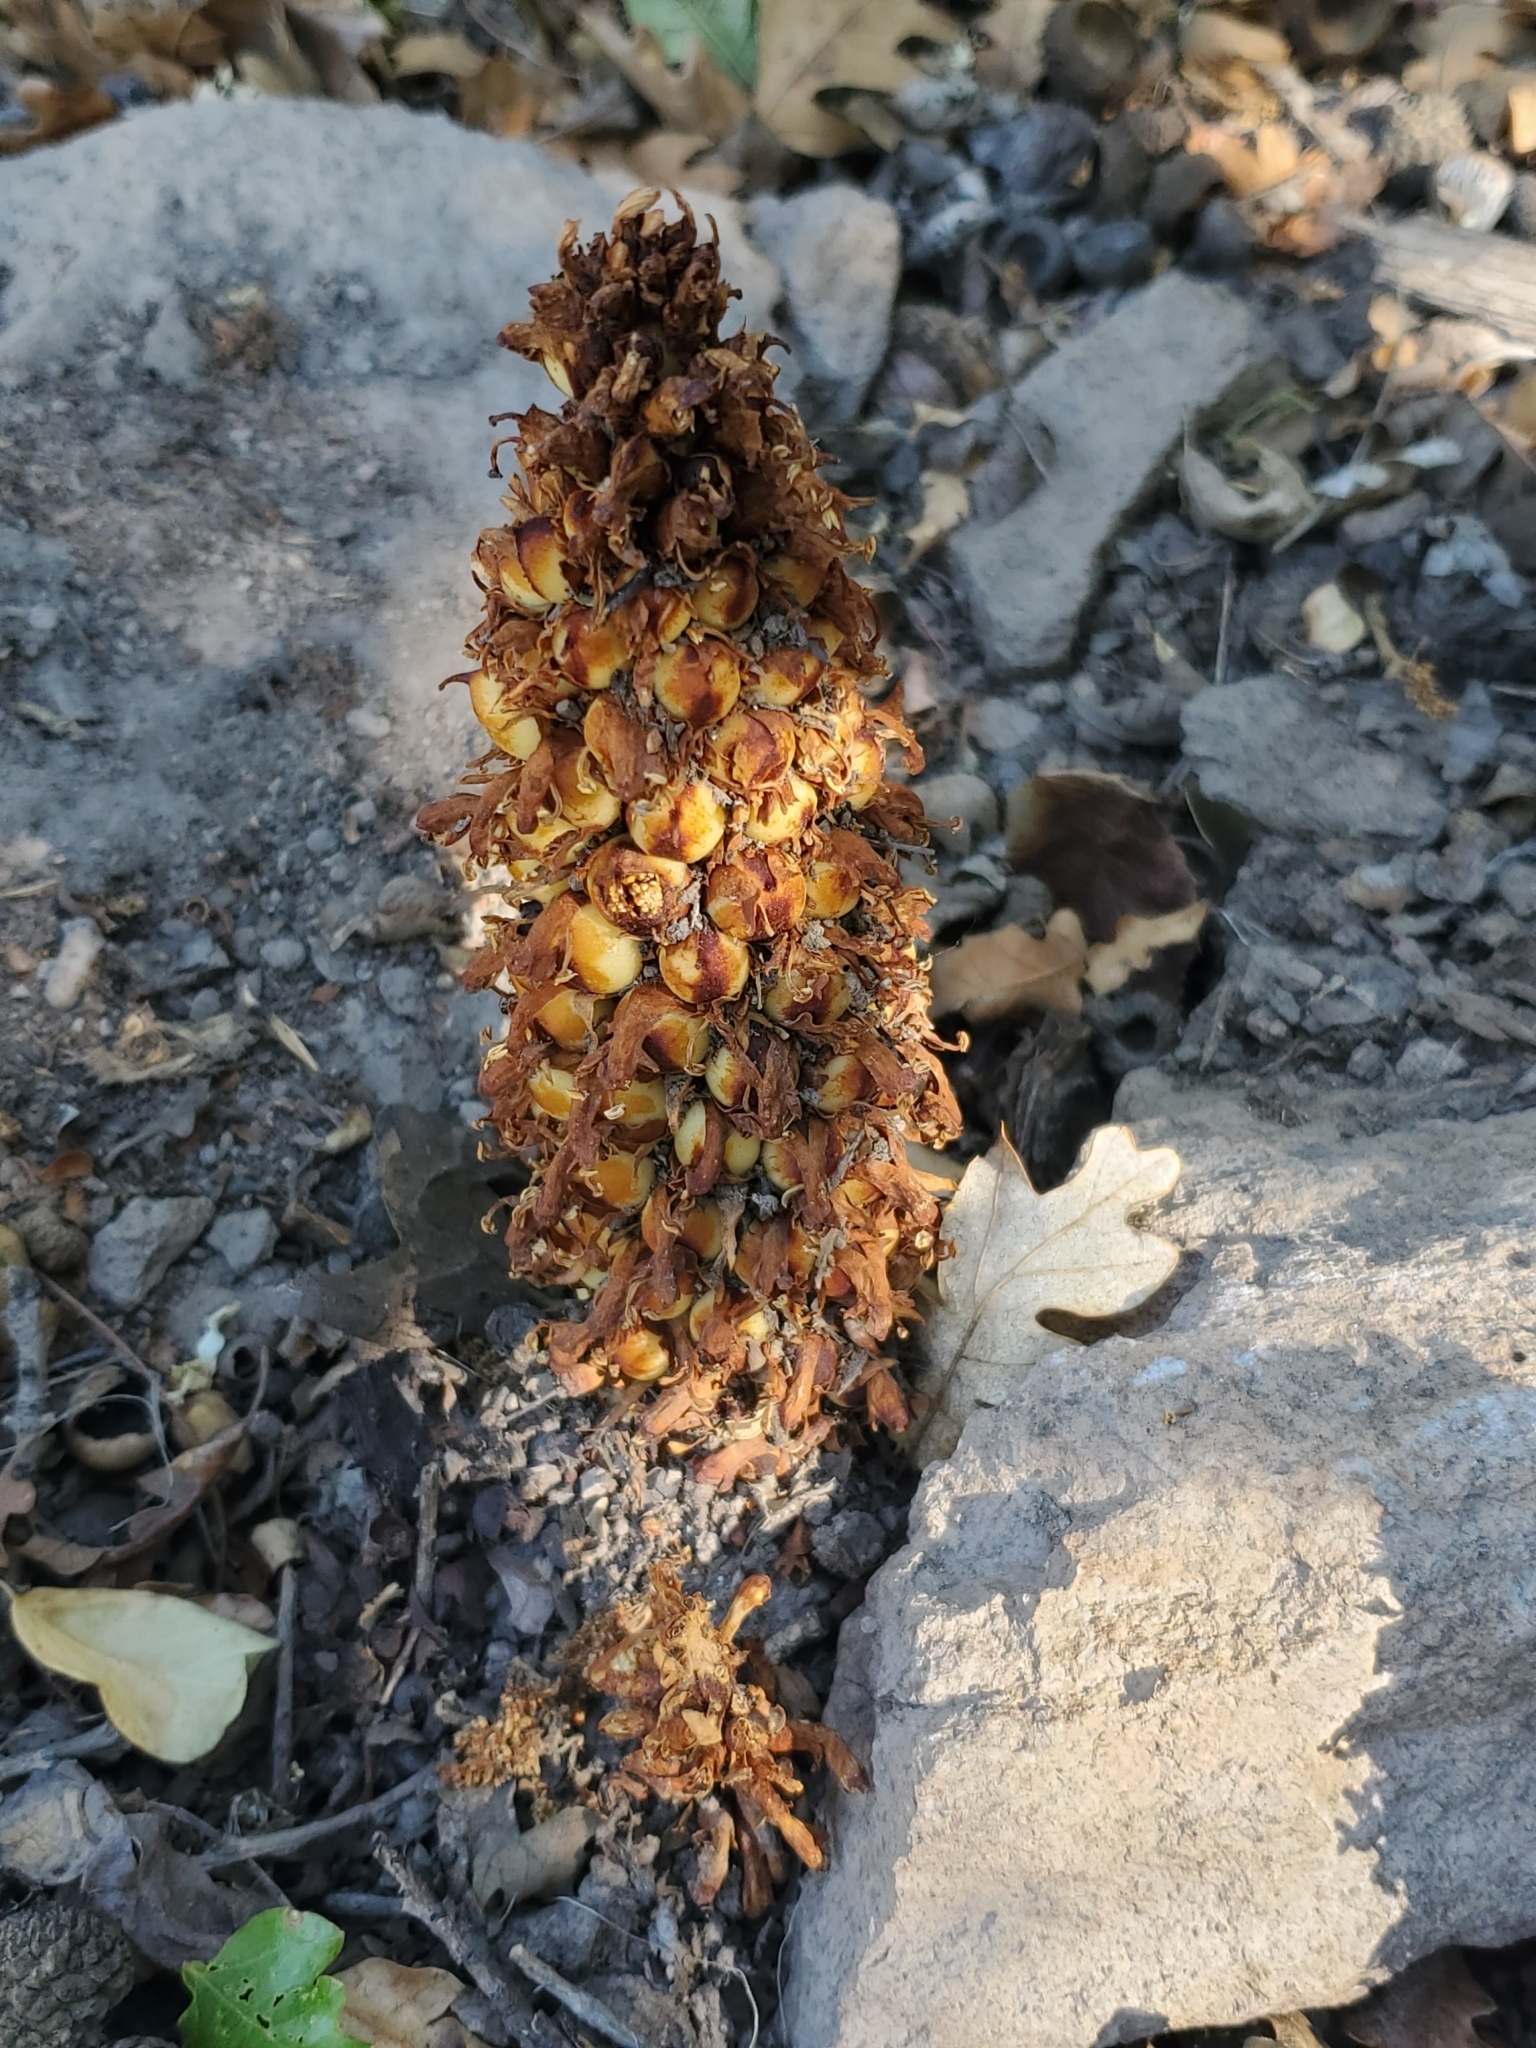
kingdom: Plantae
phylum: Tracheophyta
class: Magnoliopsida
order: Lamiales
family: Orobanchaceae
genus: Conopholis
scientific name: Conopholis alpina
